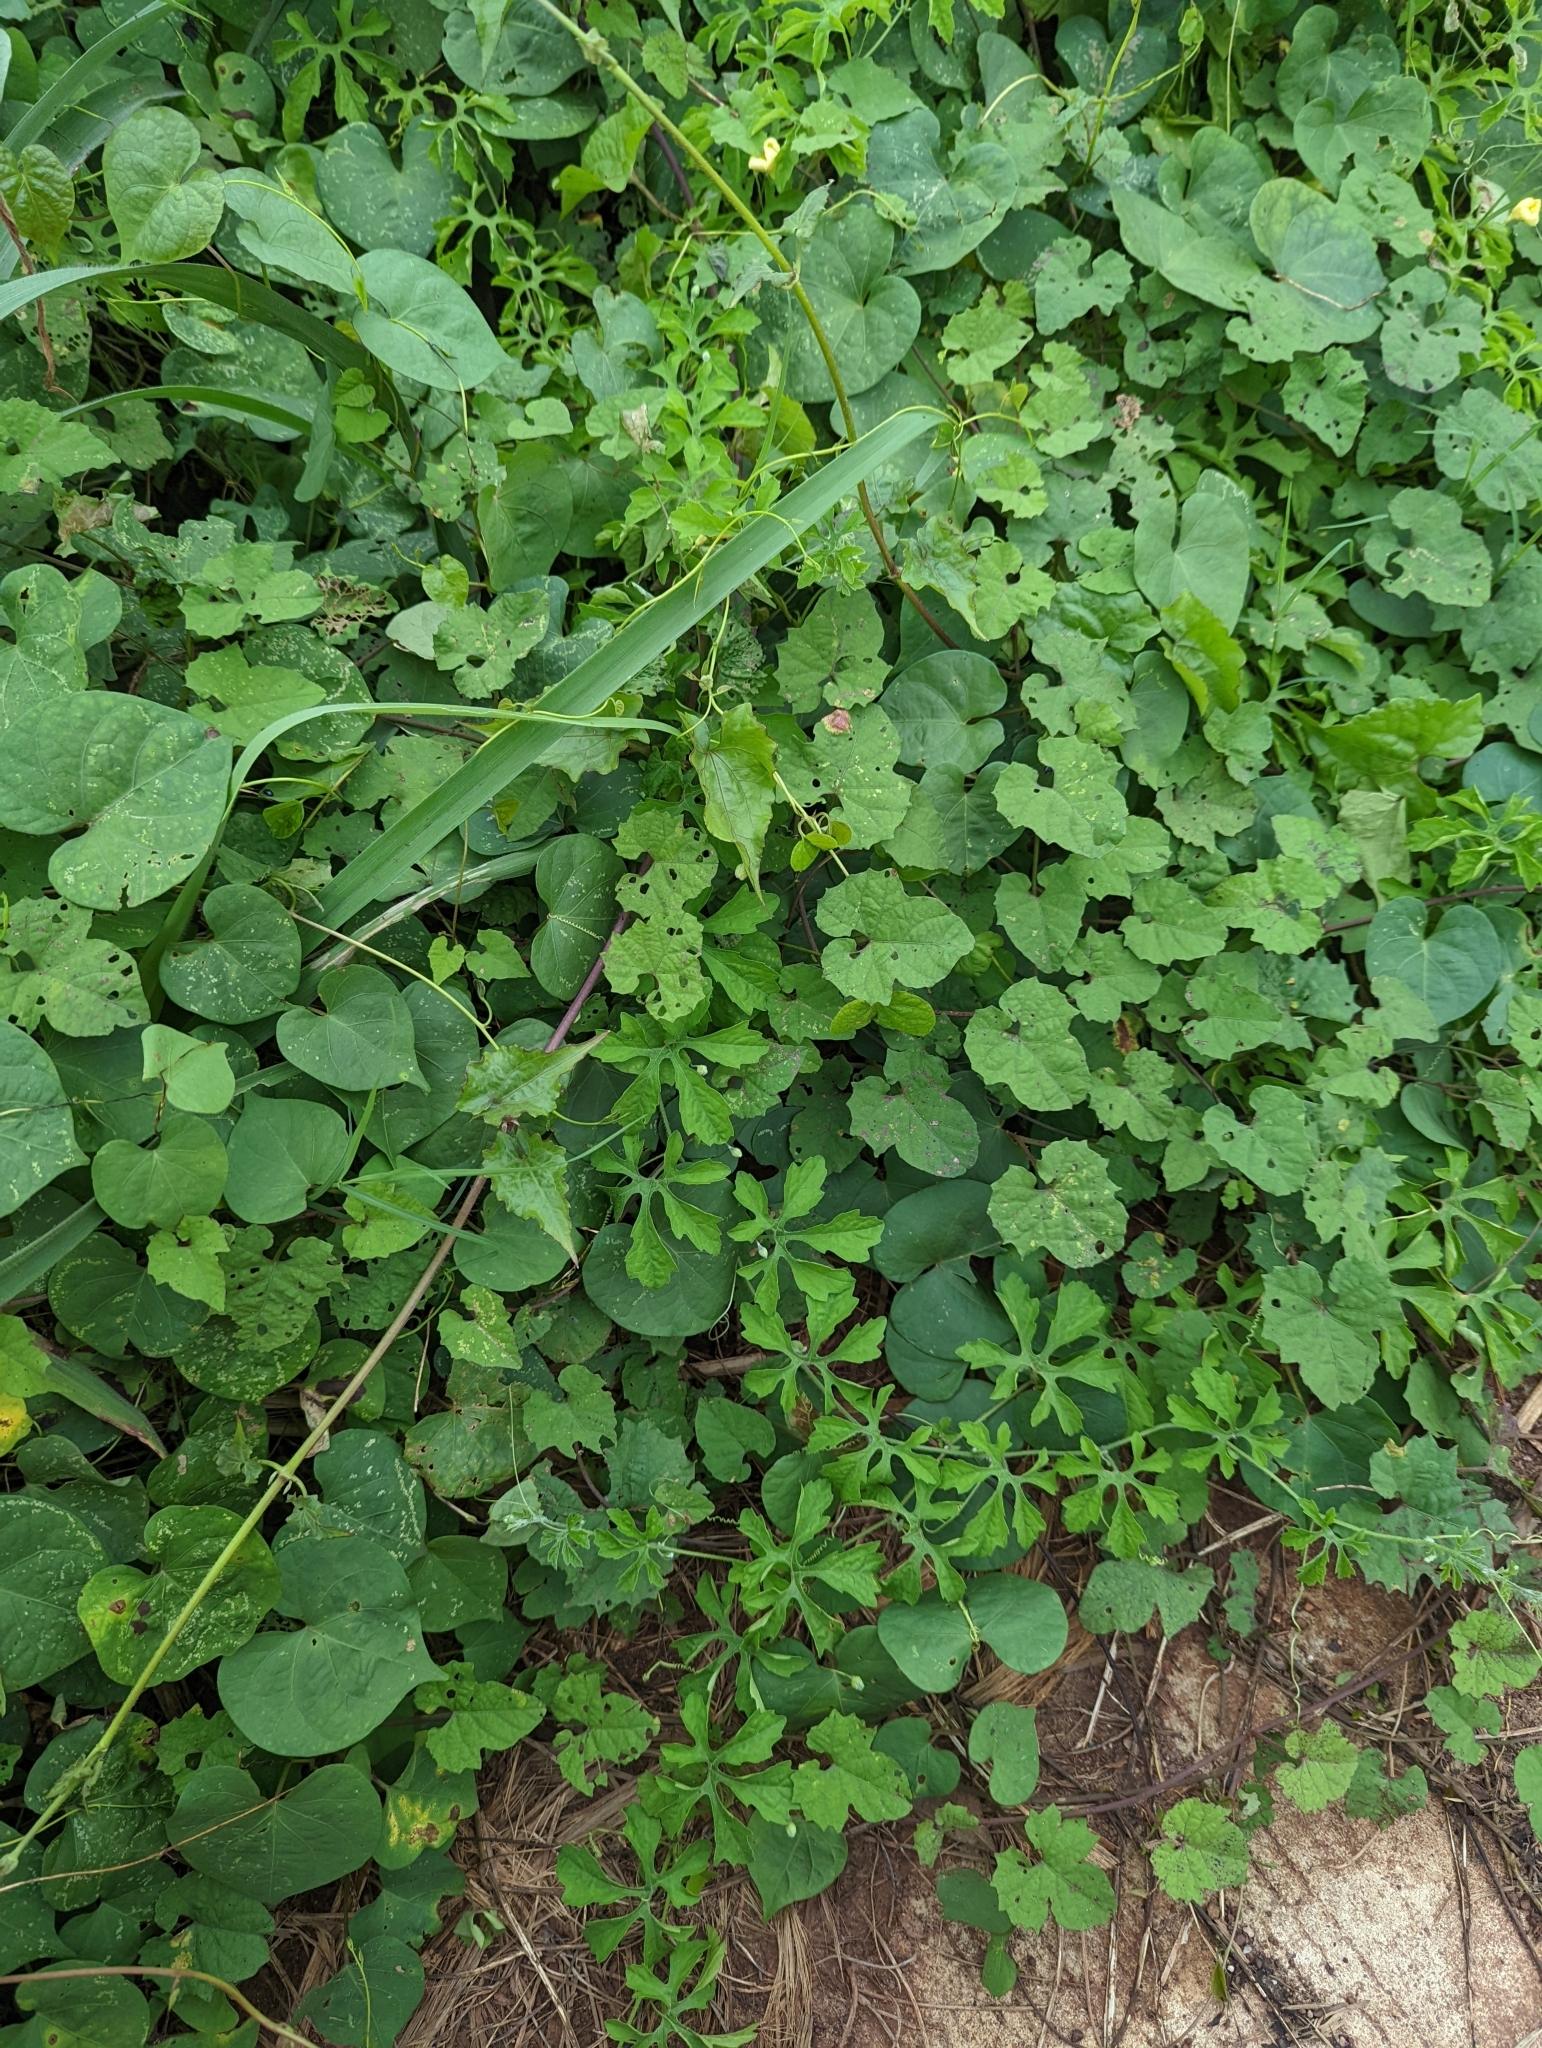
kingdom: Plantae
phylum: Tracheophyta
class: Magnoliopsida
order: Cucurbitales
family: Cucurbitaceae
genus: Momordica
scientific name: Momordica charantia
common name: Balsampear
